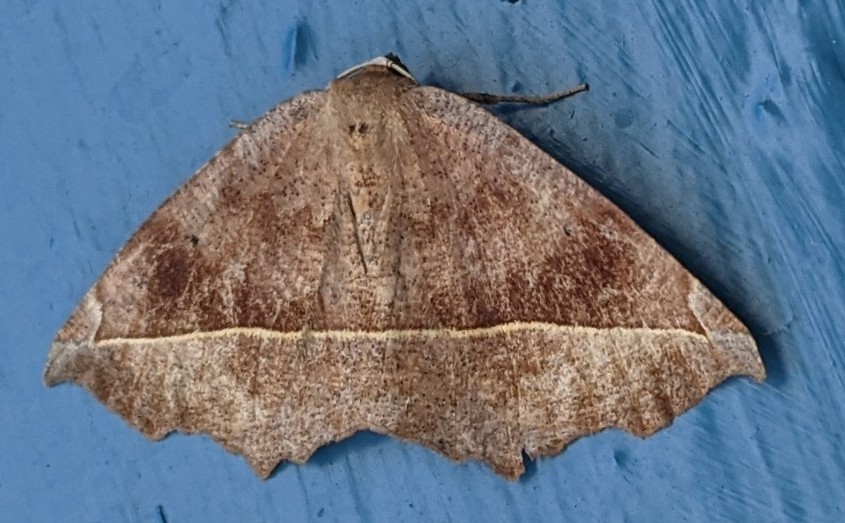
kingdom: Animalia
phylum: Arthropoda
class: Insecta
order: Lepidoptera
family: Geometridae
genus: Eutrapela
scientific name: Eutrapela clemataria
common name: Curved-toothed geometer
